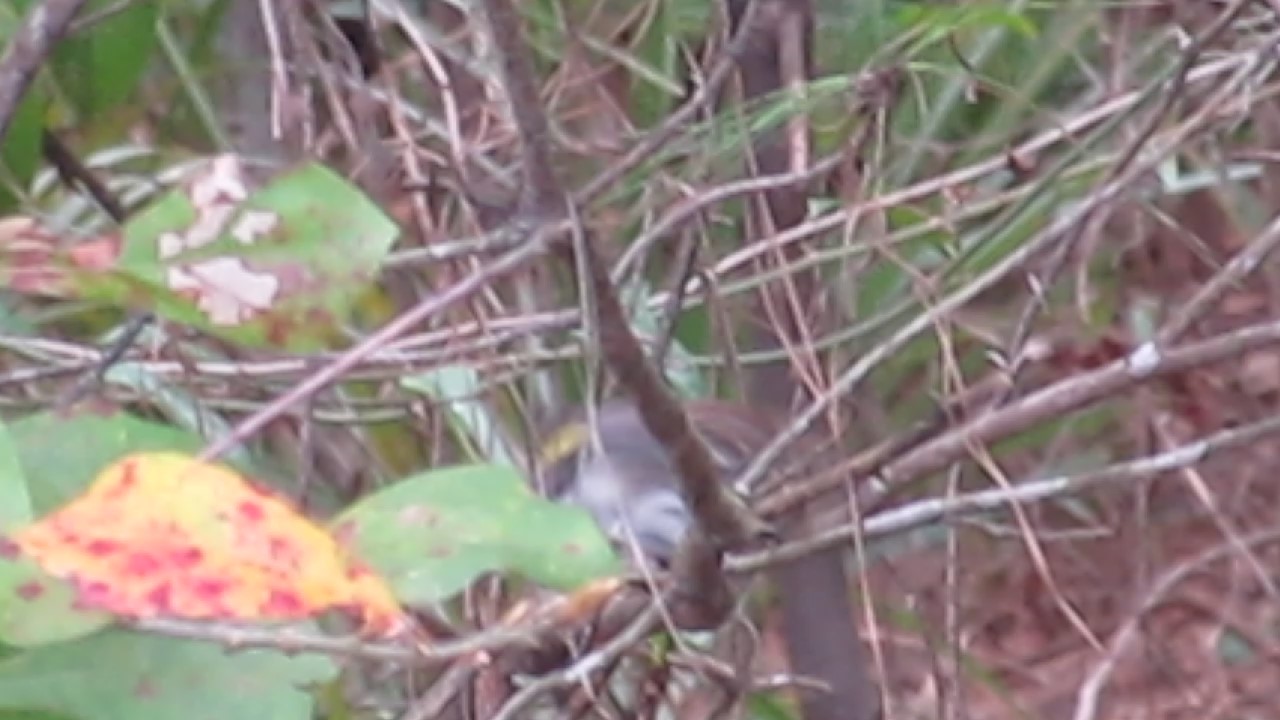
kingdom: Animalia
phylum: Chordata
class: Aves
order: Passeriformes
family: Parulidae
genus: Setophaga
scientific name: Setophaga coronata
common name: Myrtle warbler
